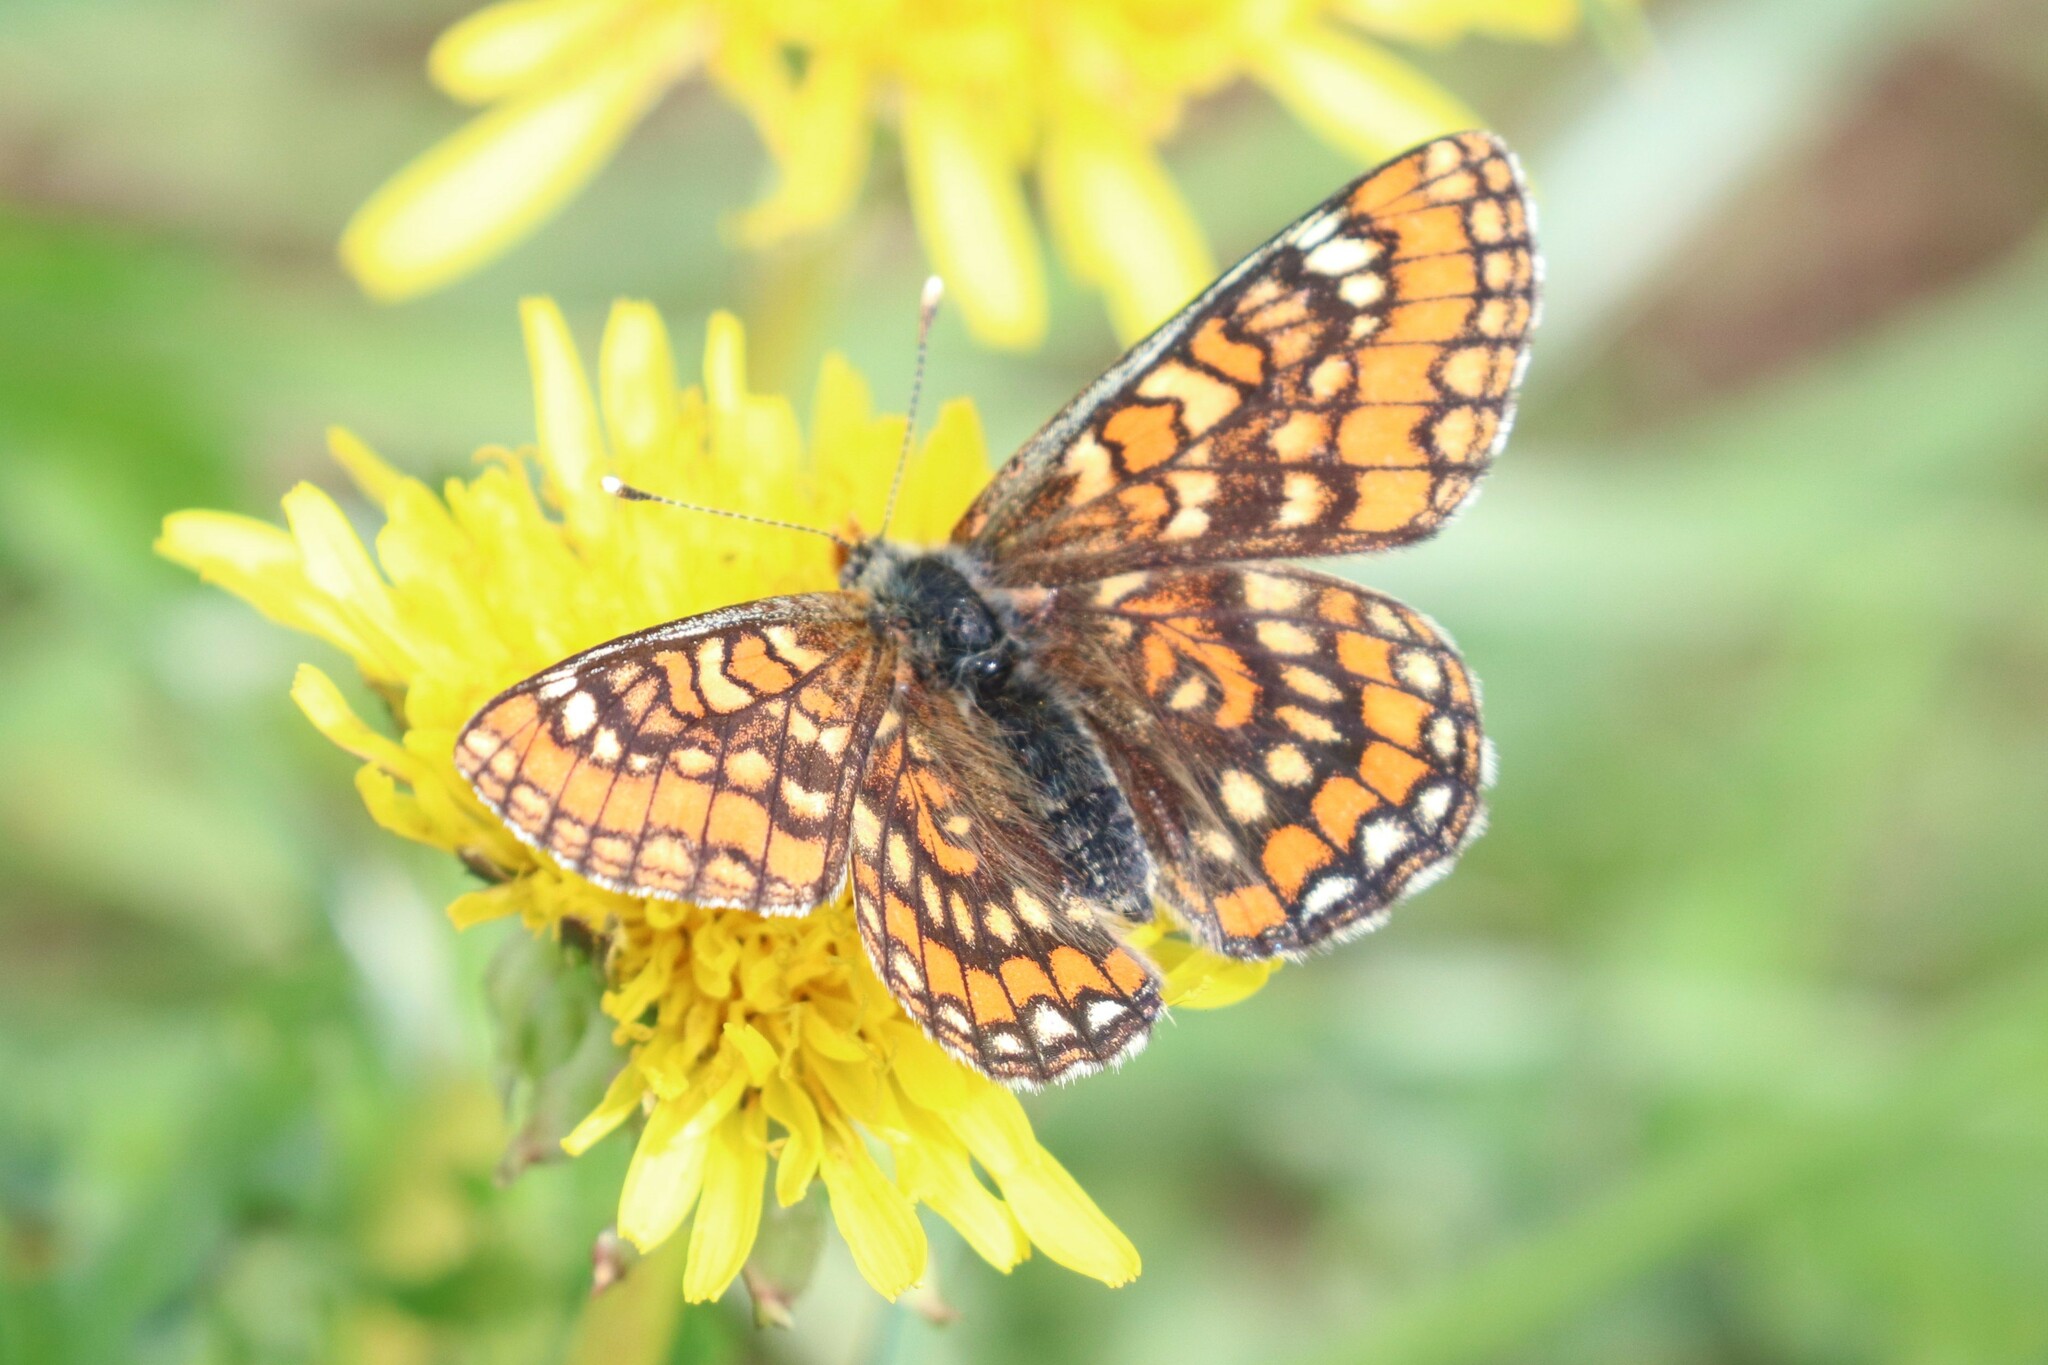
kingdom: Animalia
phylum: Arthropoda
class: Insecta
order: Lepidoptera
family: Nymphalidae
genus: Euphydryas
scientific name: Euphydryas maturna
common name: Scarce fritillary
